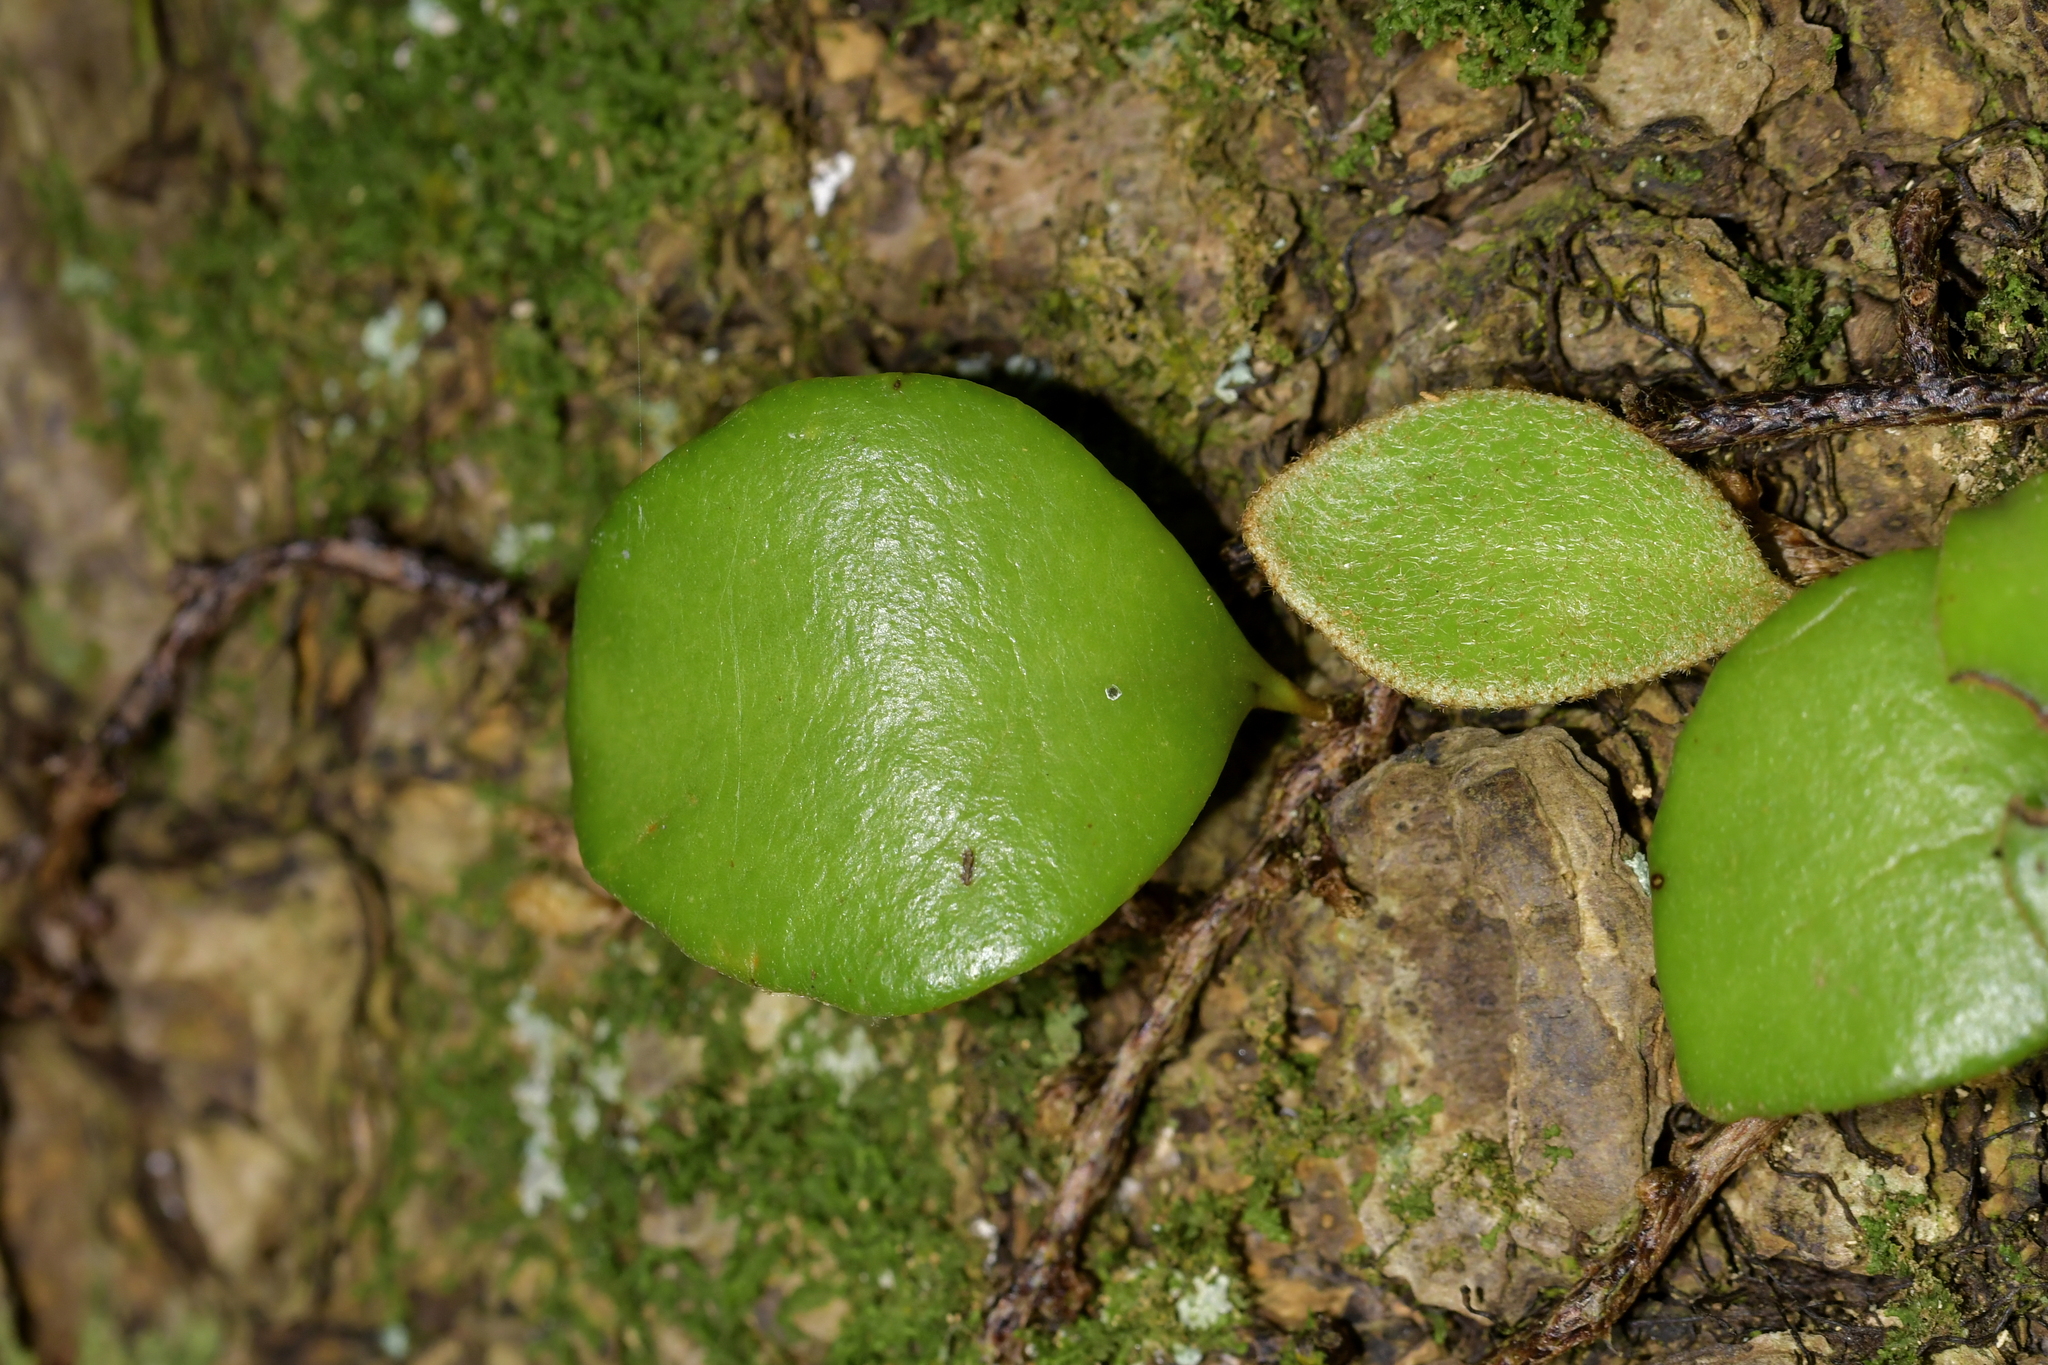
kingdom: Plantae
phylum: Tracheophyta
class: Polypodiopsida
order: Polypodiales
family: Polypodiaceae
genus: Pyrrosia
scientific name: Pyrrosia eleagnifolia
